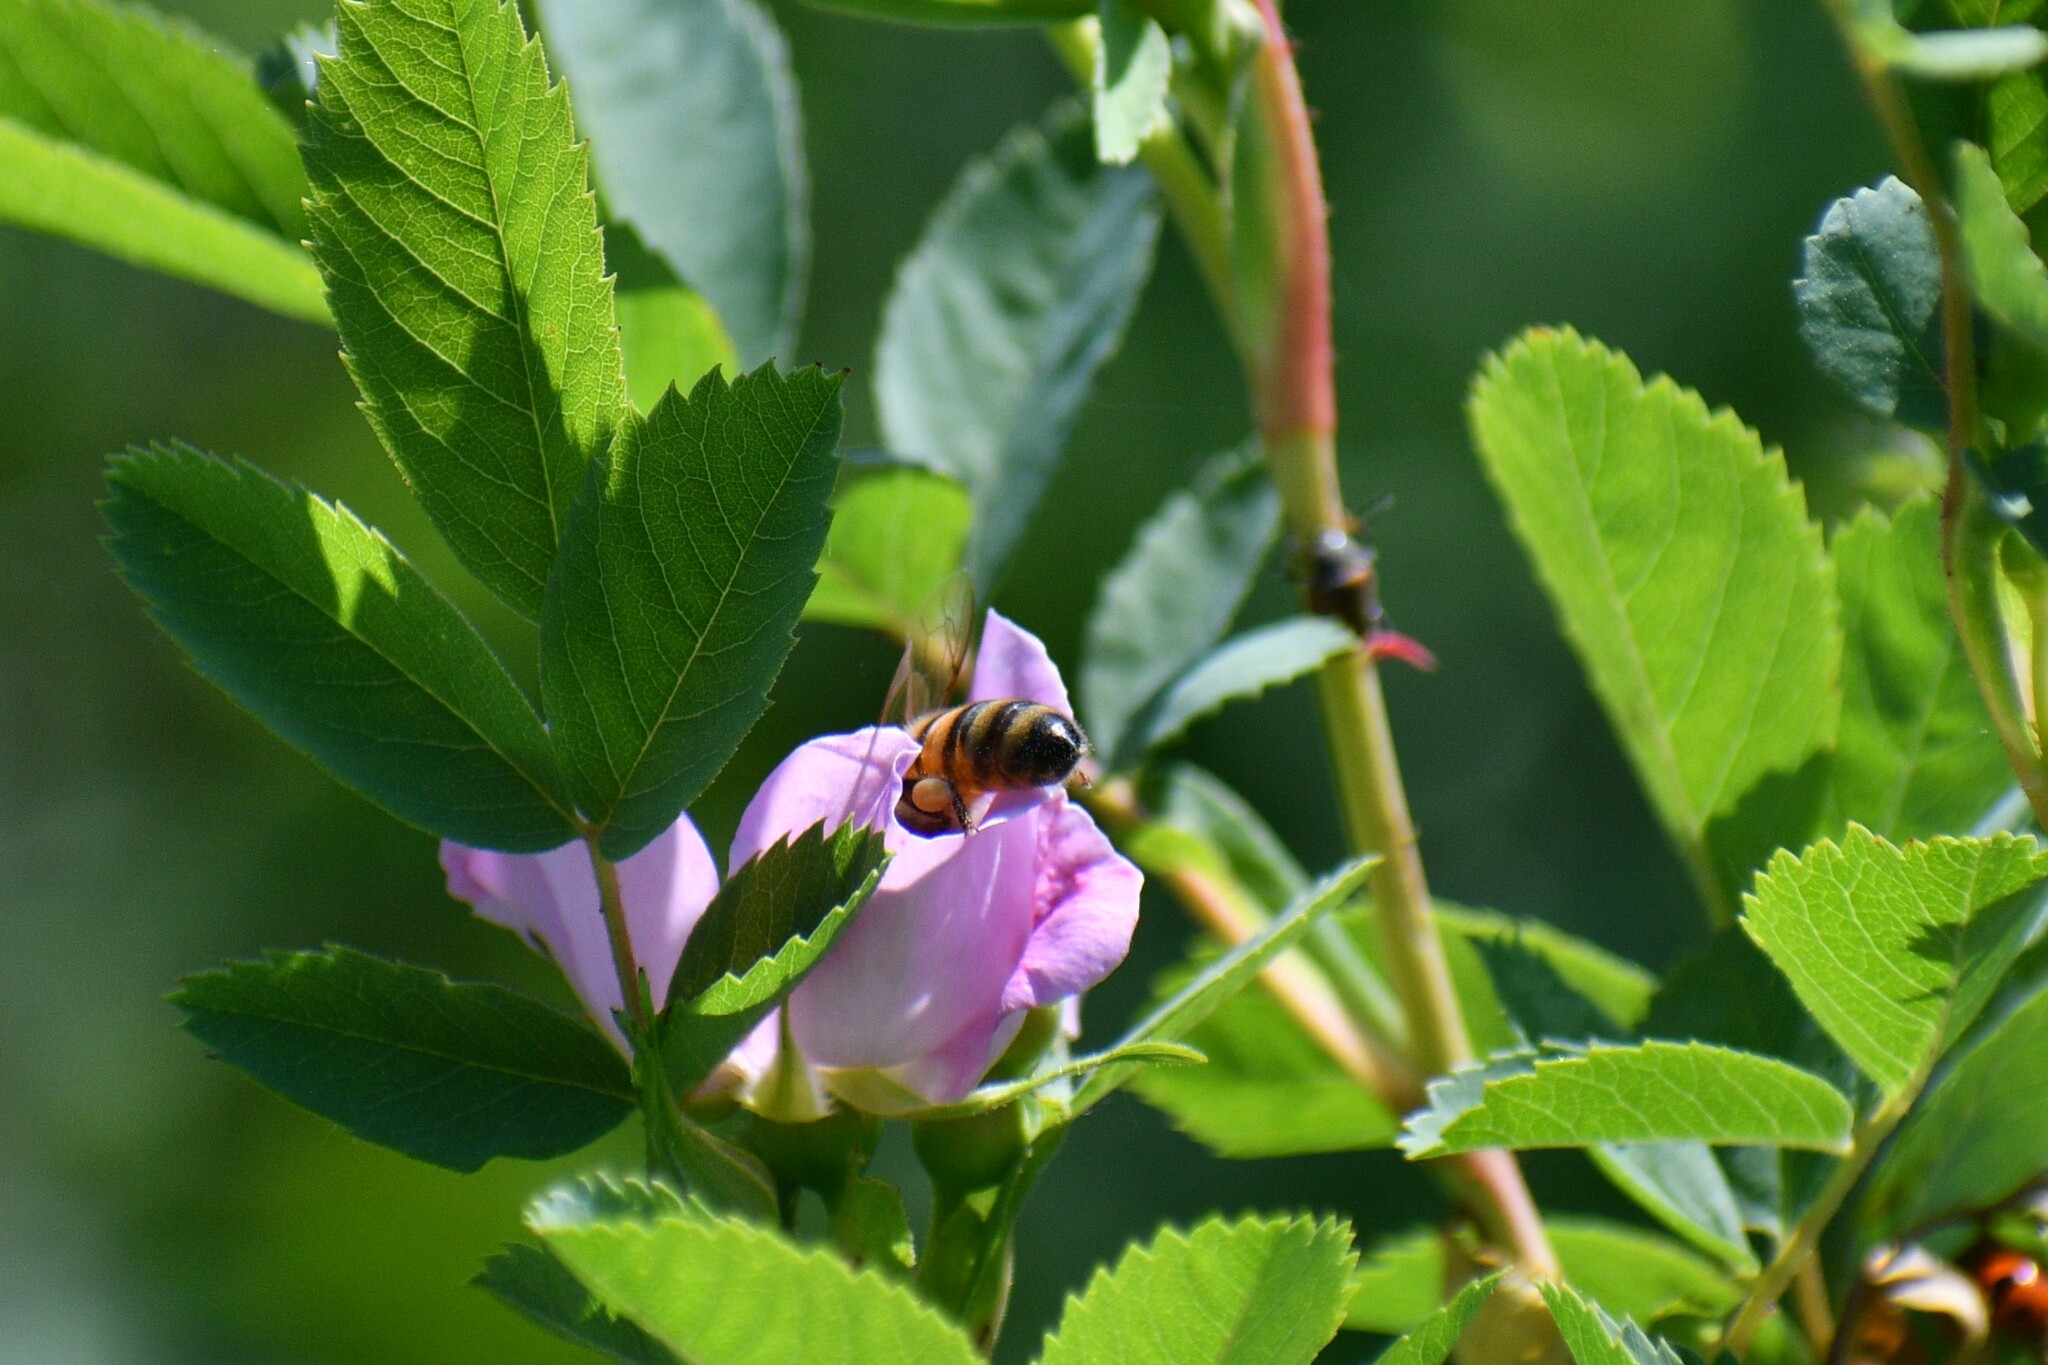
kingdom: Animalia
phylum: Arthropoda
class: Insecta
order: Hymenoptera
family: Apidae
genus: Apis
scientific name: Apis mellifera
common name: Honey bee
